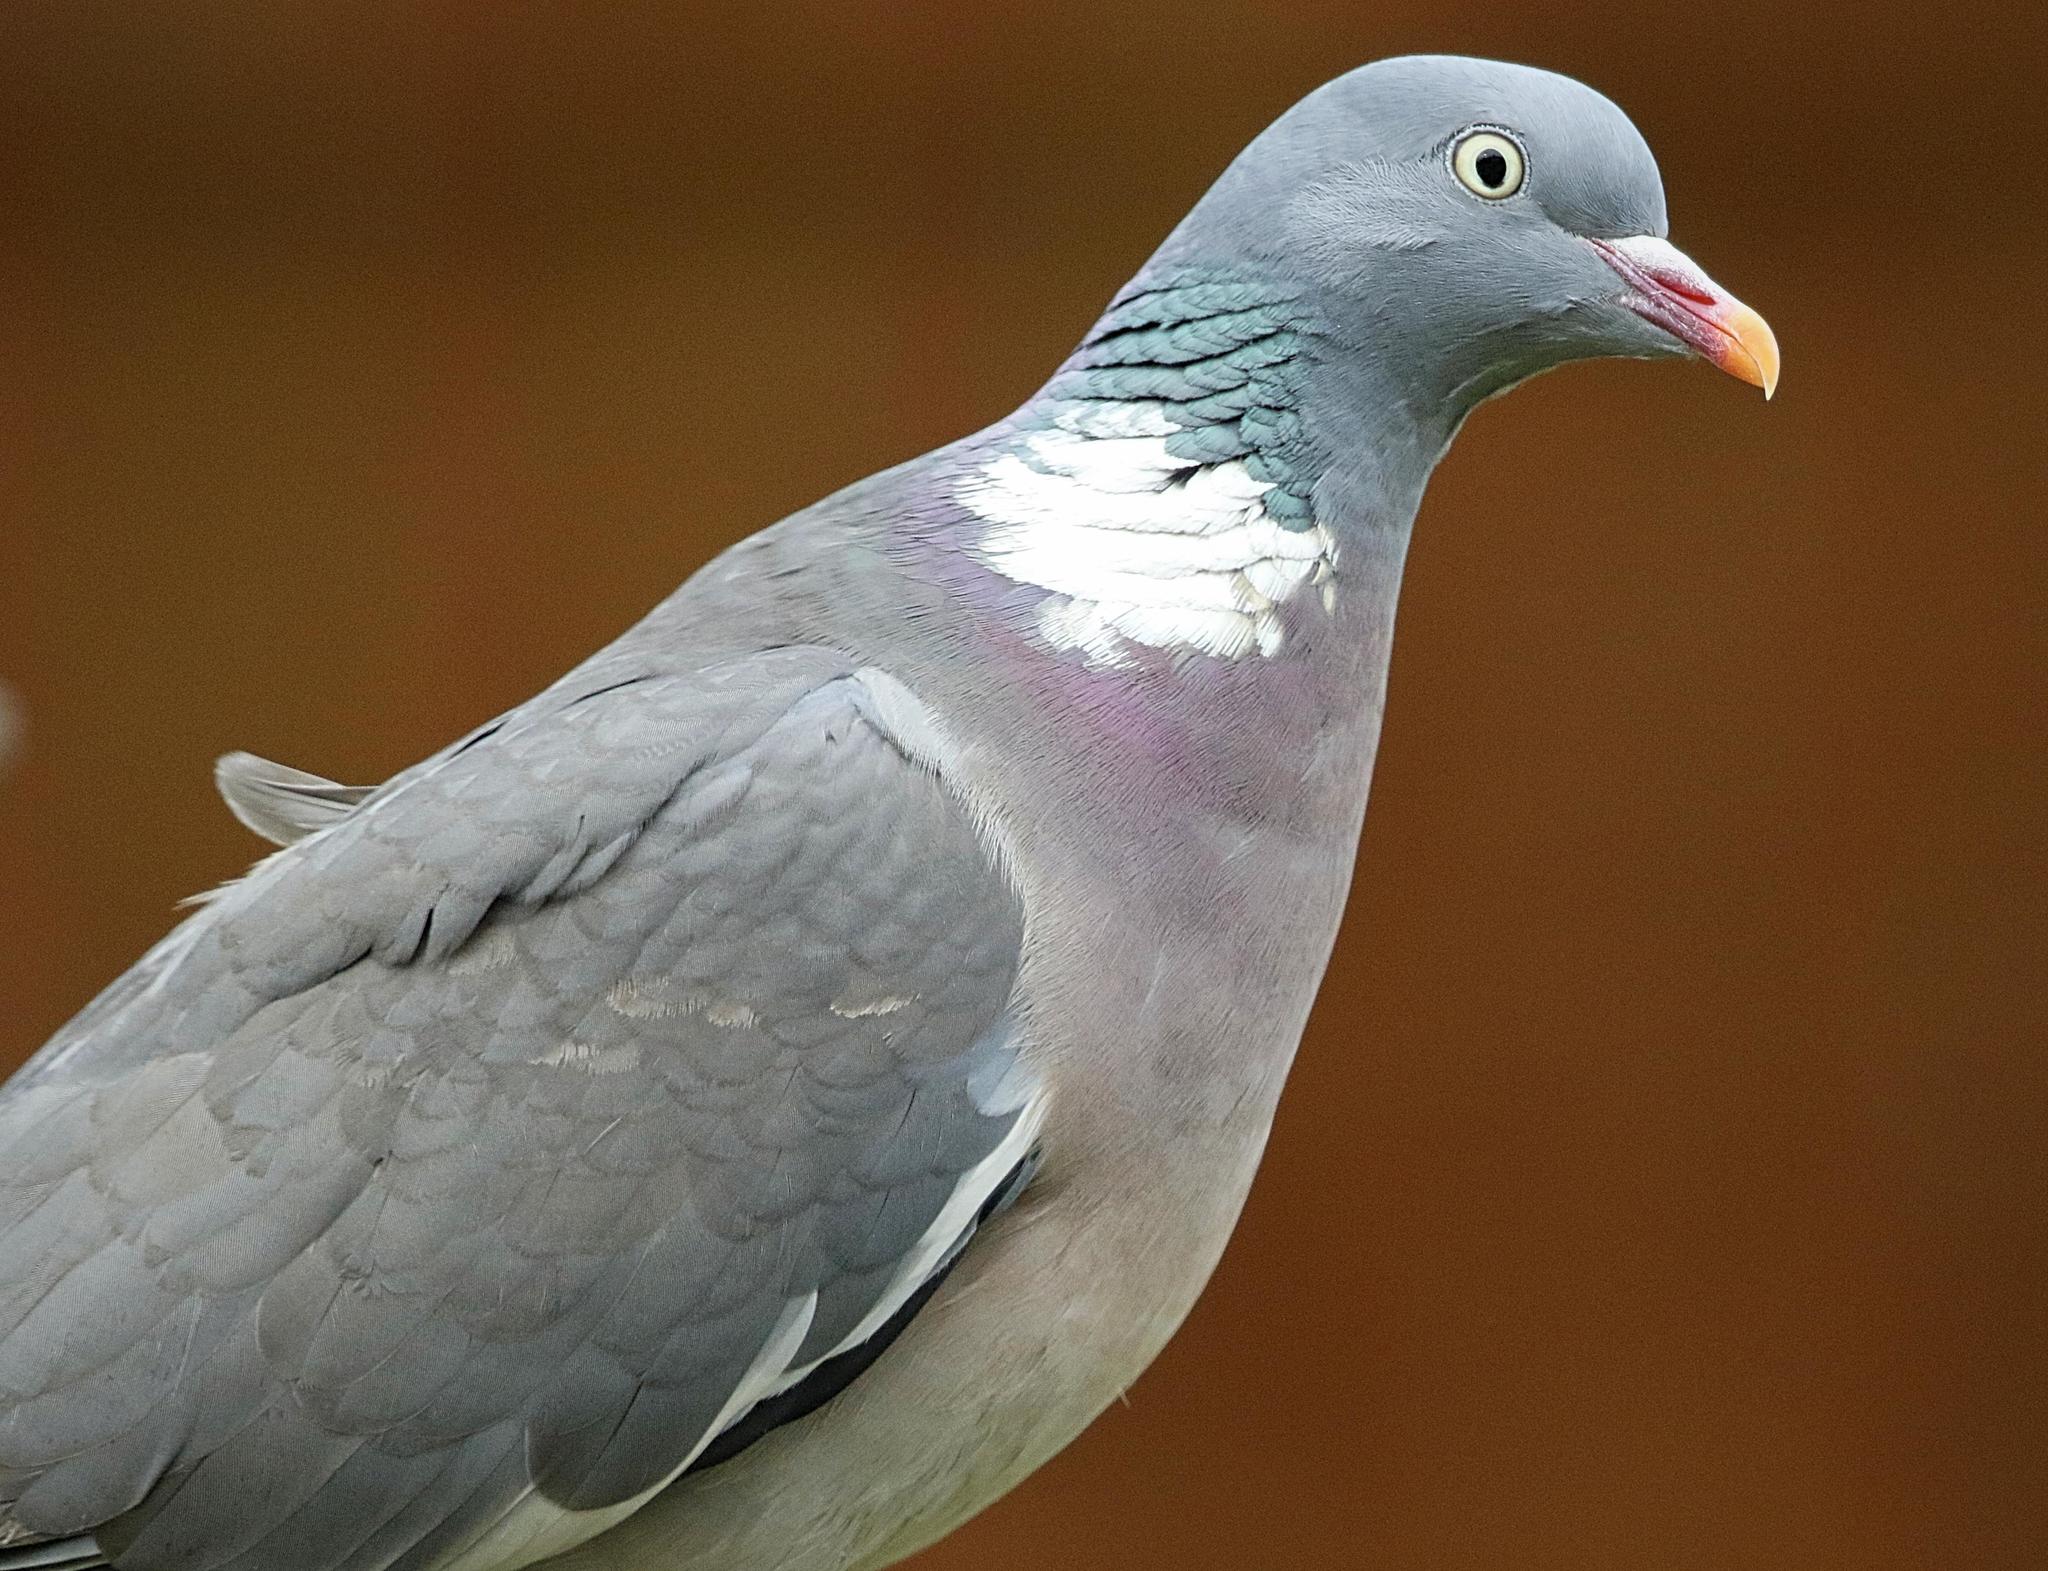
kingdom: Animalia
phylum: Chordata
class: Aves
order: Columbiformes
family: Columbidae
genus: Columba
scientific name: Columba palumbus
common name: Common wood pigeon
